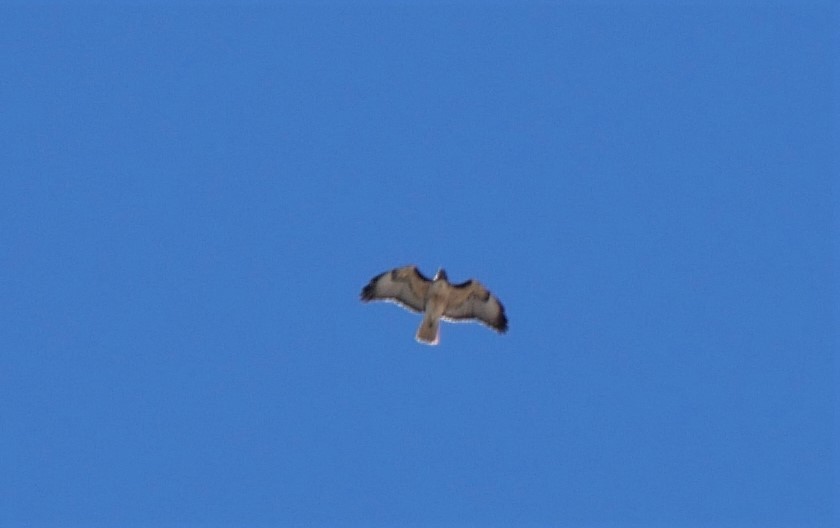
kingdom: Animalia
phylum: Chordata
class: Aves
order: Accipitriformes
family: Accipitridae
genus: Buteo
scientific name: Buteo jamaicensis
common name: Red-tailed hawk
